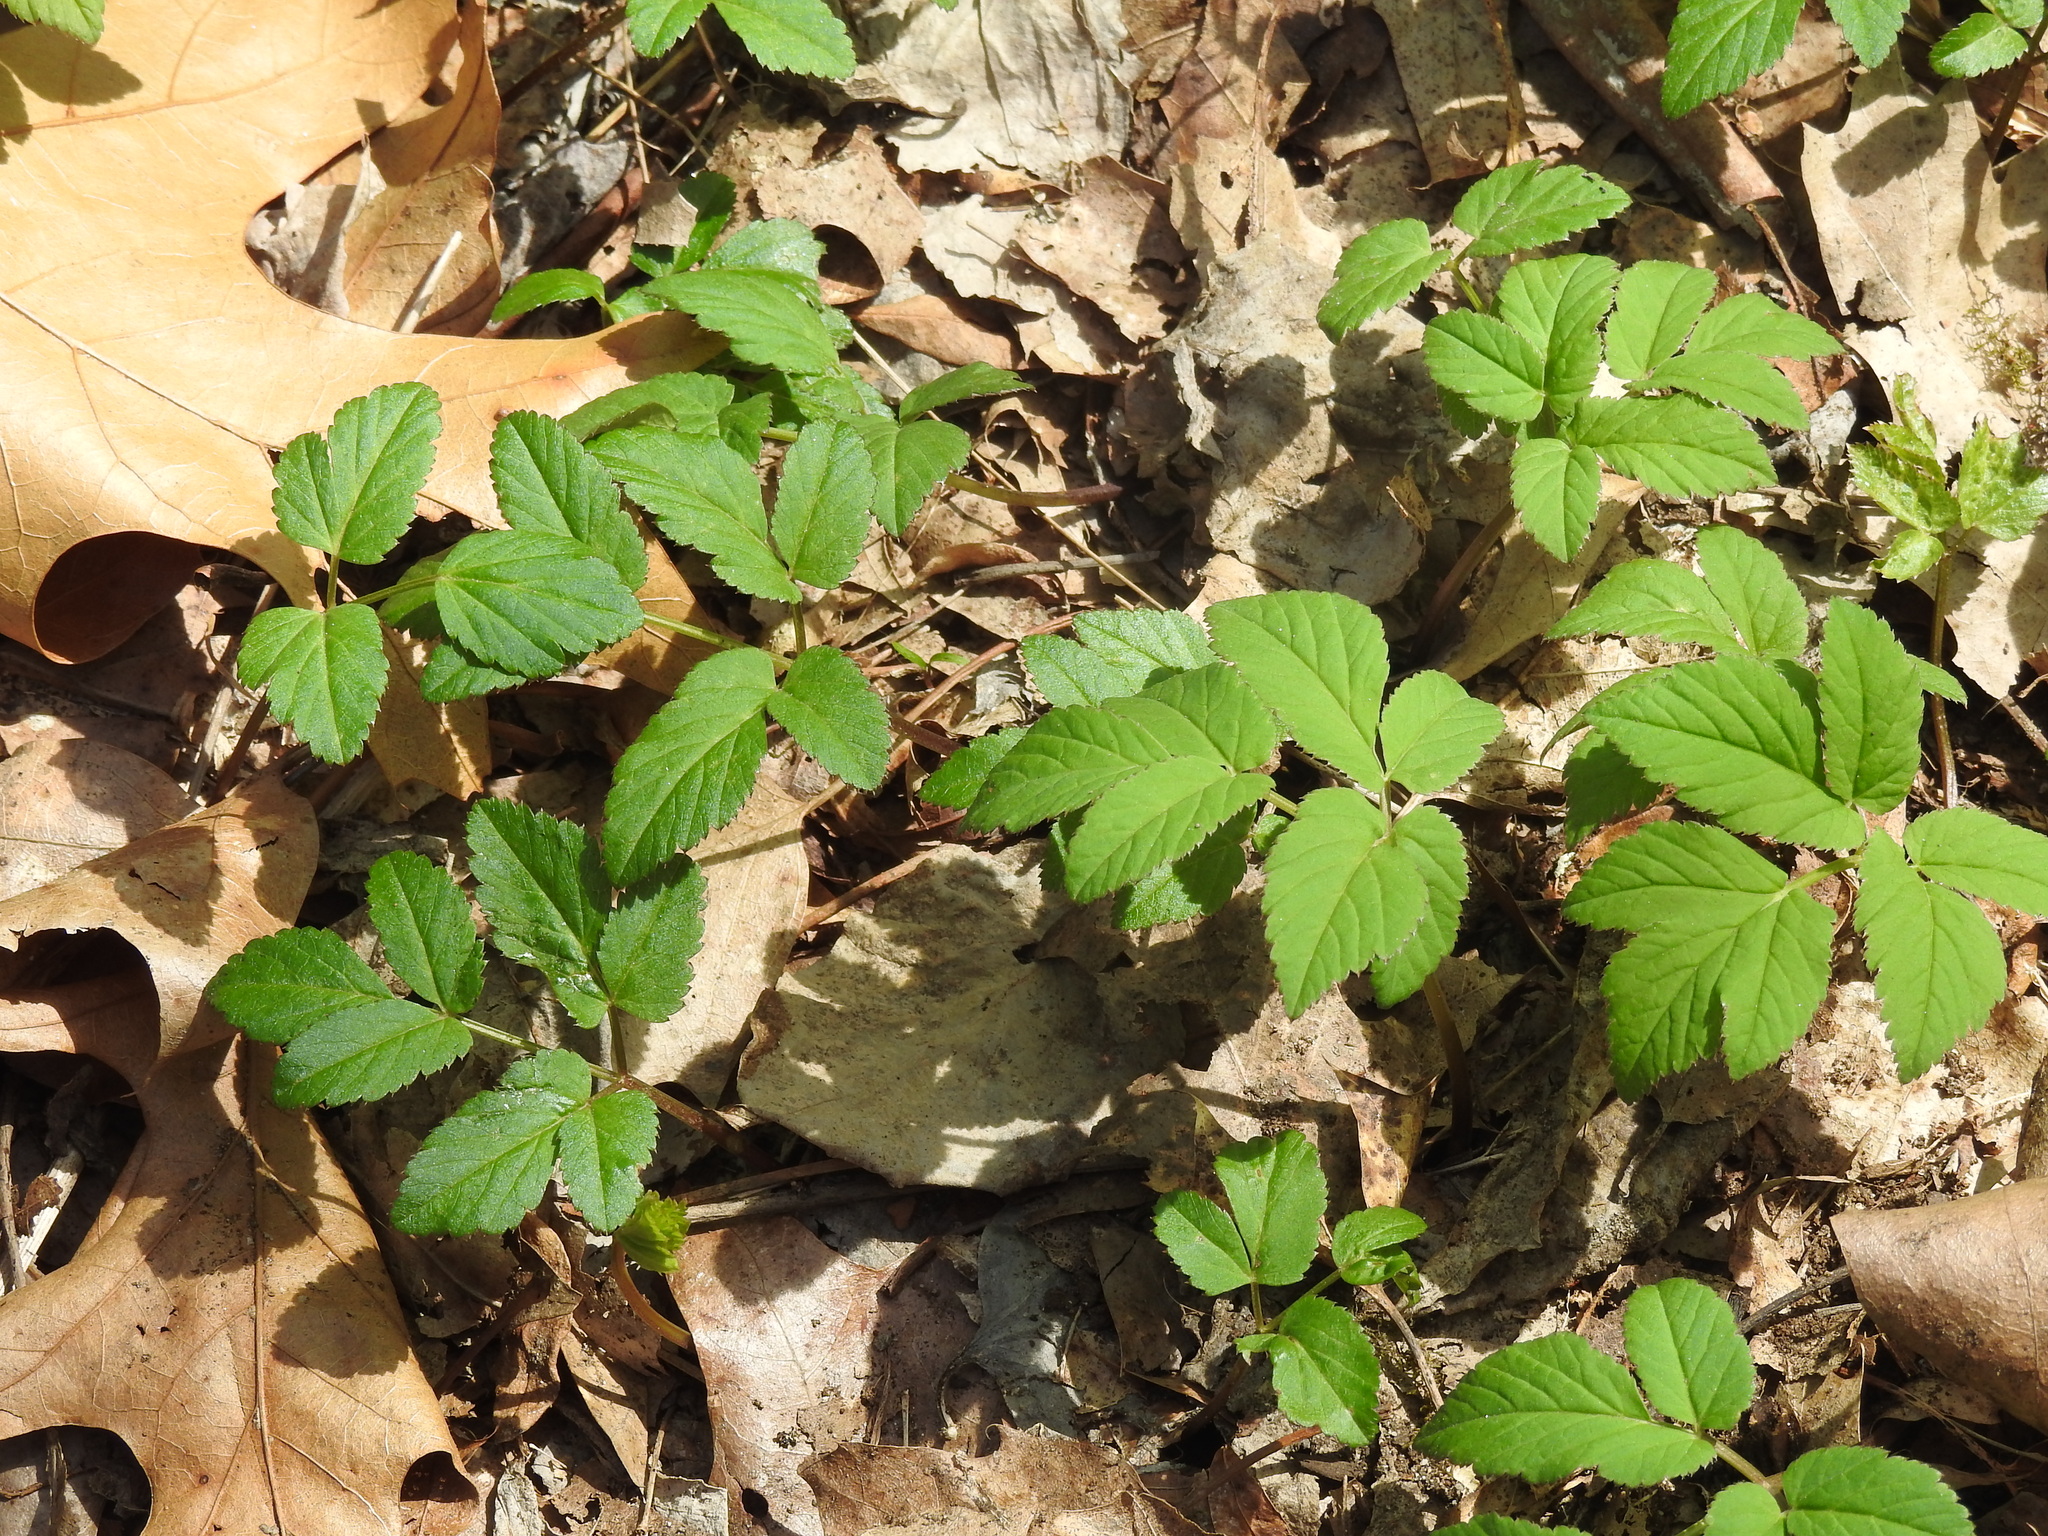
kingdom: Plantae
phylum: Tracheophyta
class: Magnoliopsida
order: Apiales
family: Apiaceae
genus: Aegopodium
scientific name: Aegopodium podagraria
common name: Ground-elder
